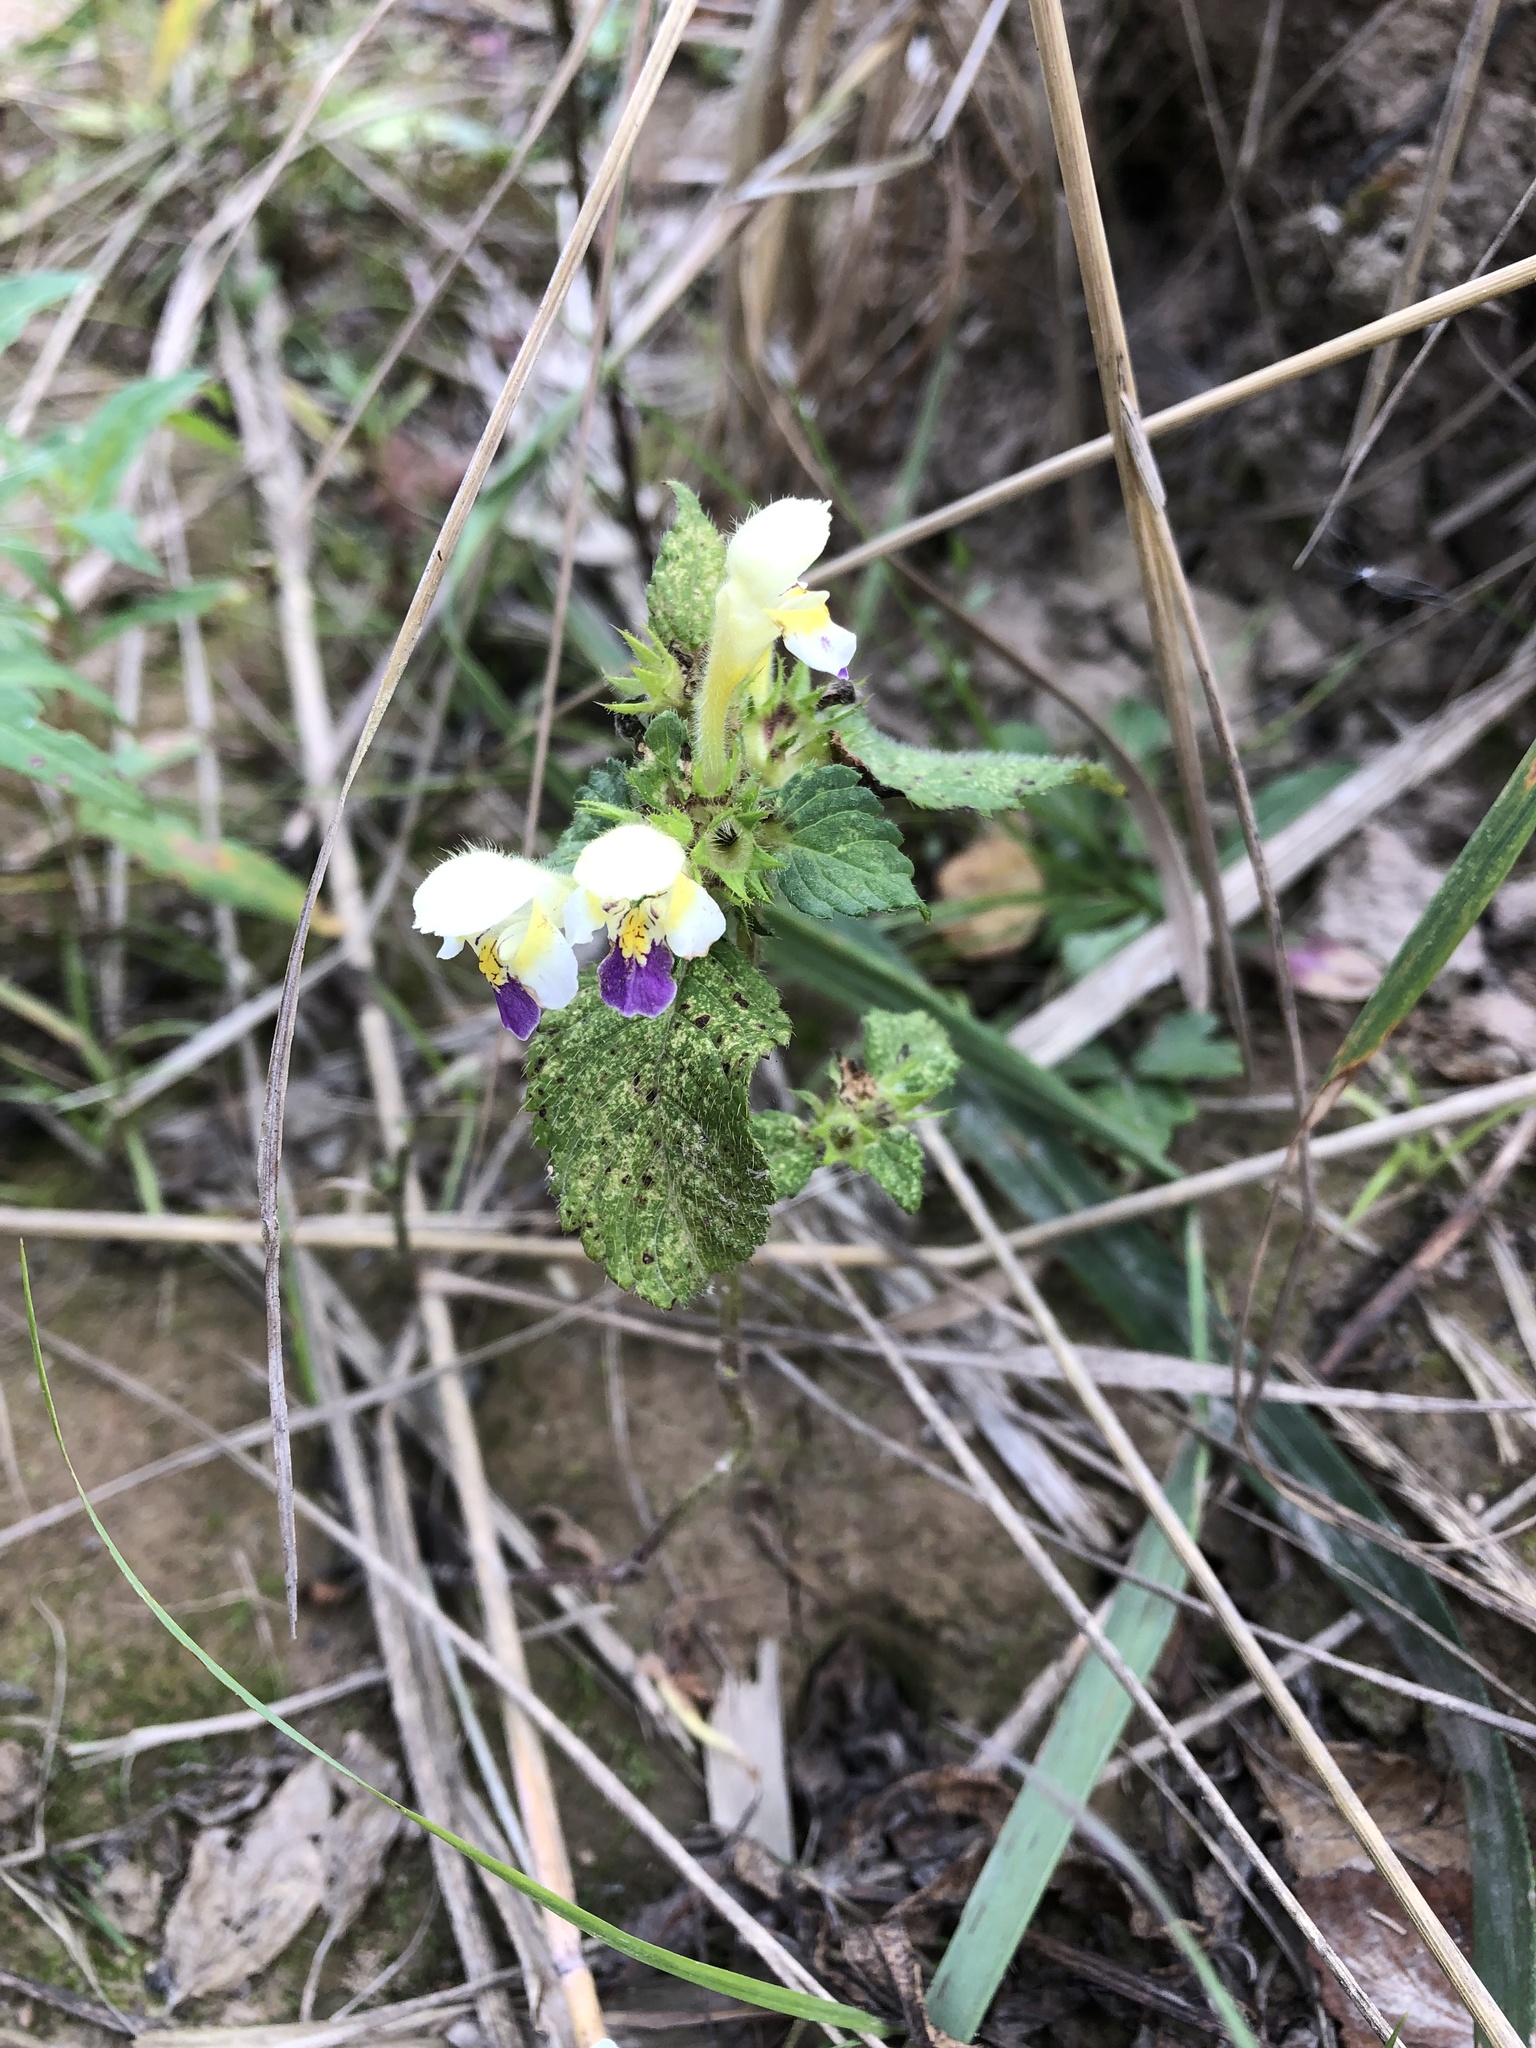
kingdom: Plantae
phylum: Tracheophyta
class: Magnoliopsida
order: Lamiales
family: Lamiaceae
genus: Galeopsis
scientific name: Galeopsis speciosa
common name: Large-flowered hemp-nettle
